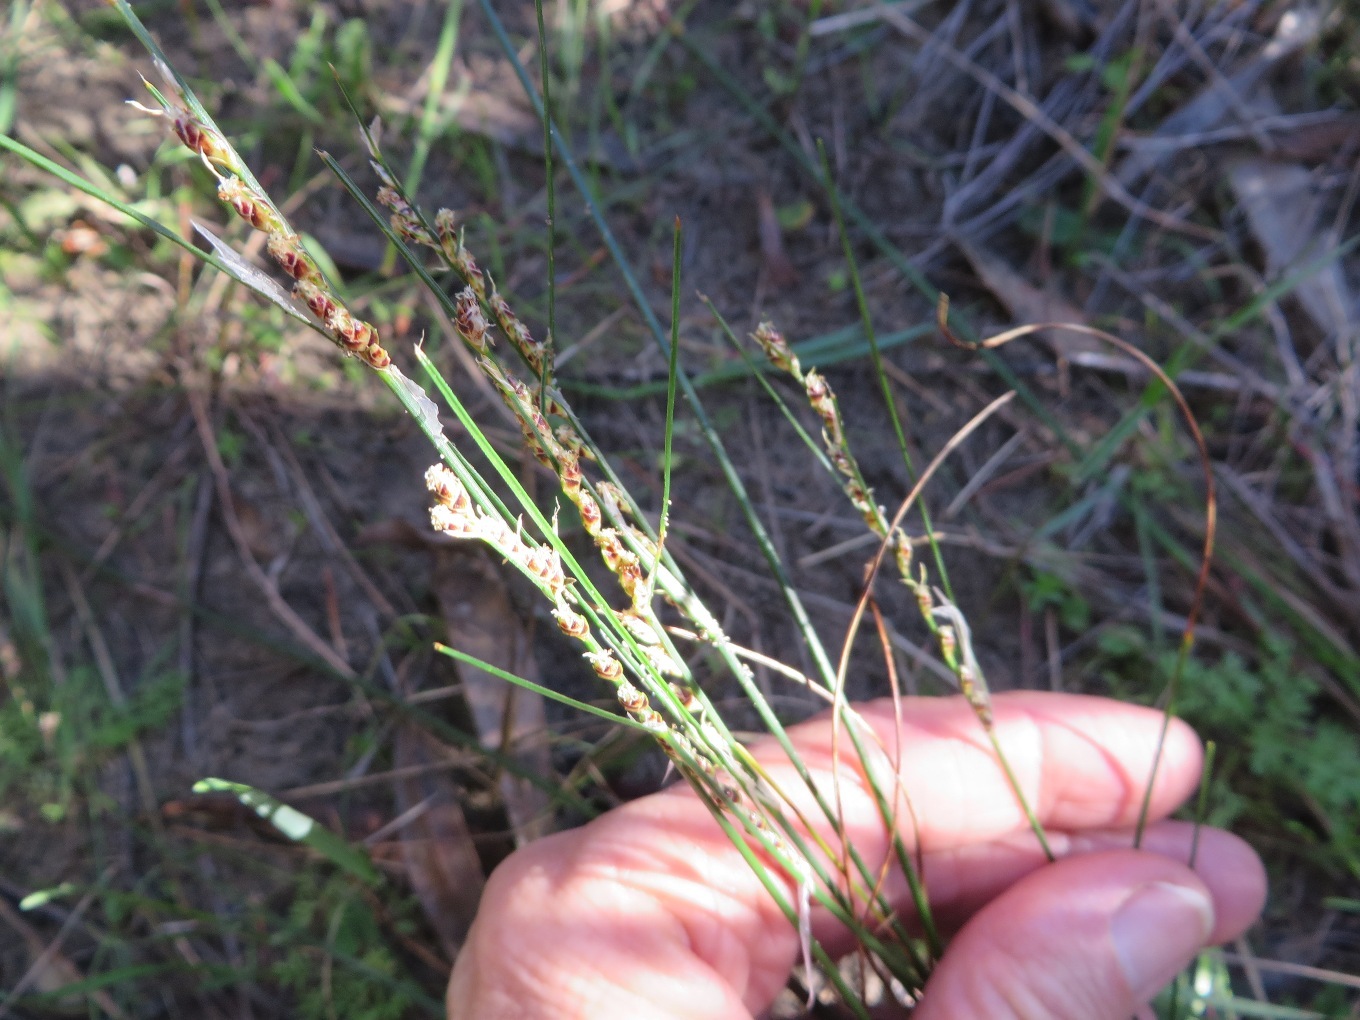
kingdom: Plantae
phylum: Tracheophyta
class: Liliopsida
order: Poales
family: Cyperaceae
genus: Ficinia
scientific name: Ficinia secunda
